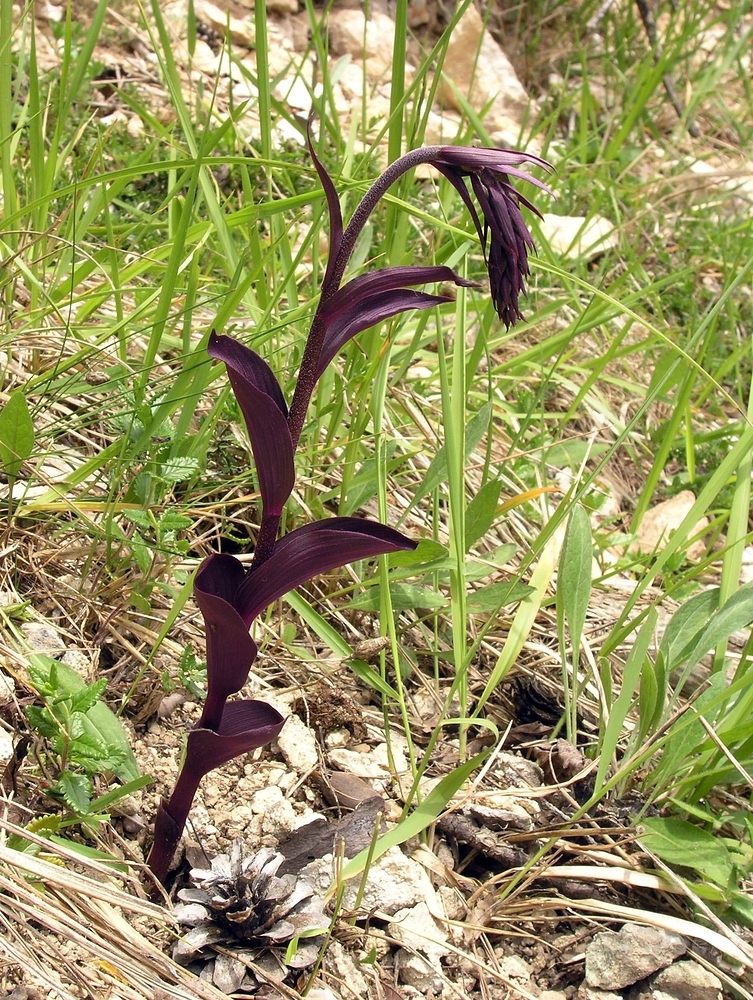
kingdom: Plantae
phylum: Tracheophyta
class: Liliopsida
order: Asparagales
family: Orchidaceae
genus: Epipactis
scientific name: Epipactis atrorubens
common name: Dark-red helleborine
